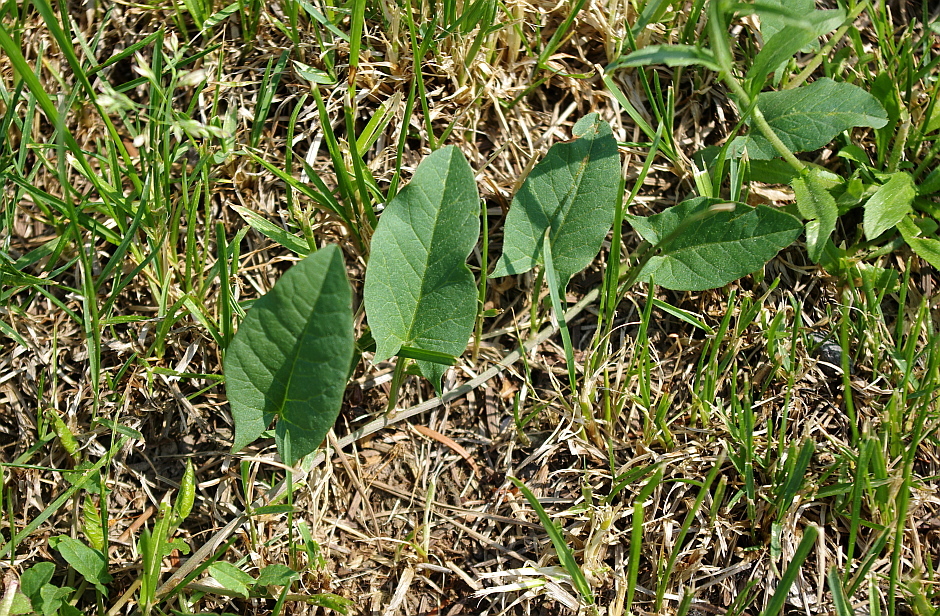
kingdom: Plantae
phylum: Tracheophyta
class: Magnoliopsida
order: Solanales
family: Convolvulaceae
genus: Convolvulus
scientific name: Convolvulus arvensis
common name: Field bindweed
